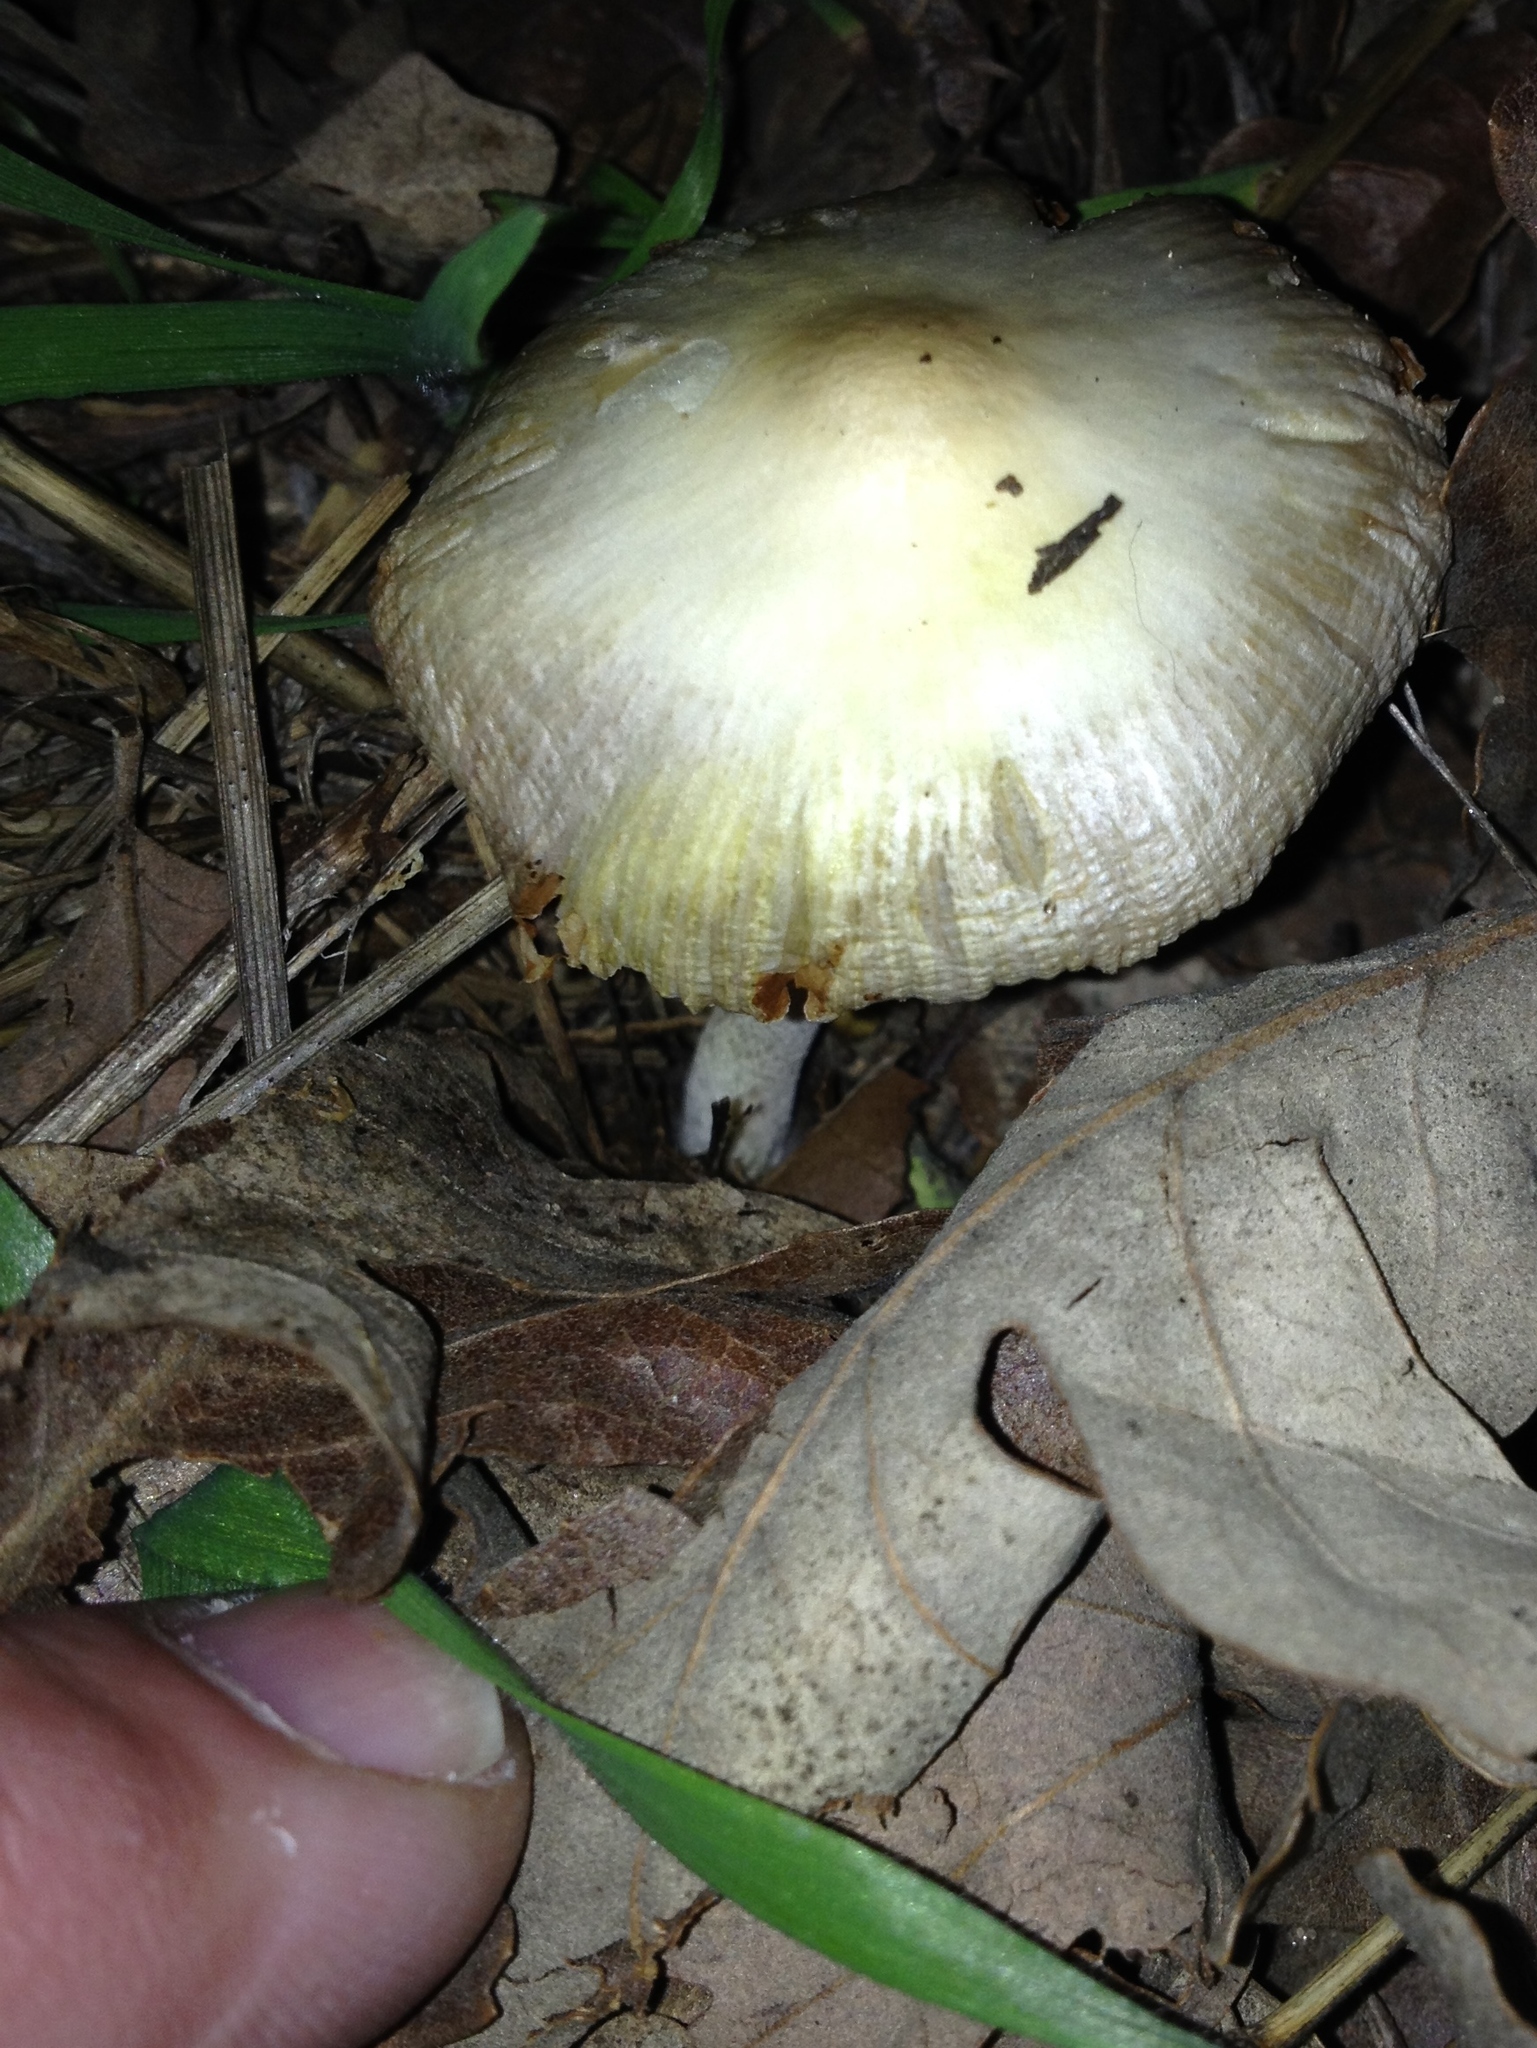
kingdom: Fungi
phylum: Basidiomycota
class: Agaricomycetes
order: Agaricales
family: Bolbitiaceae
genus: Bolbitius
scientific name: Bolbitius titubans
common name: Yellow fieldcap
